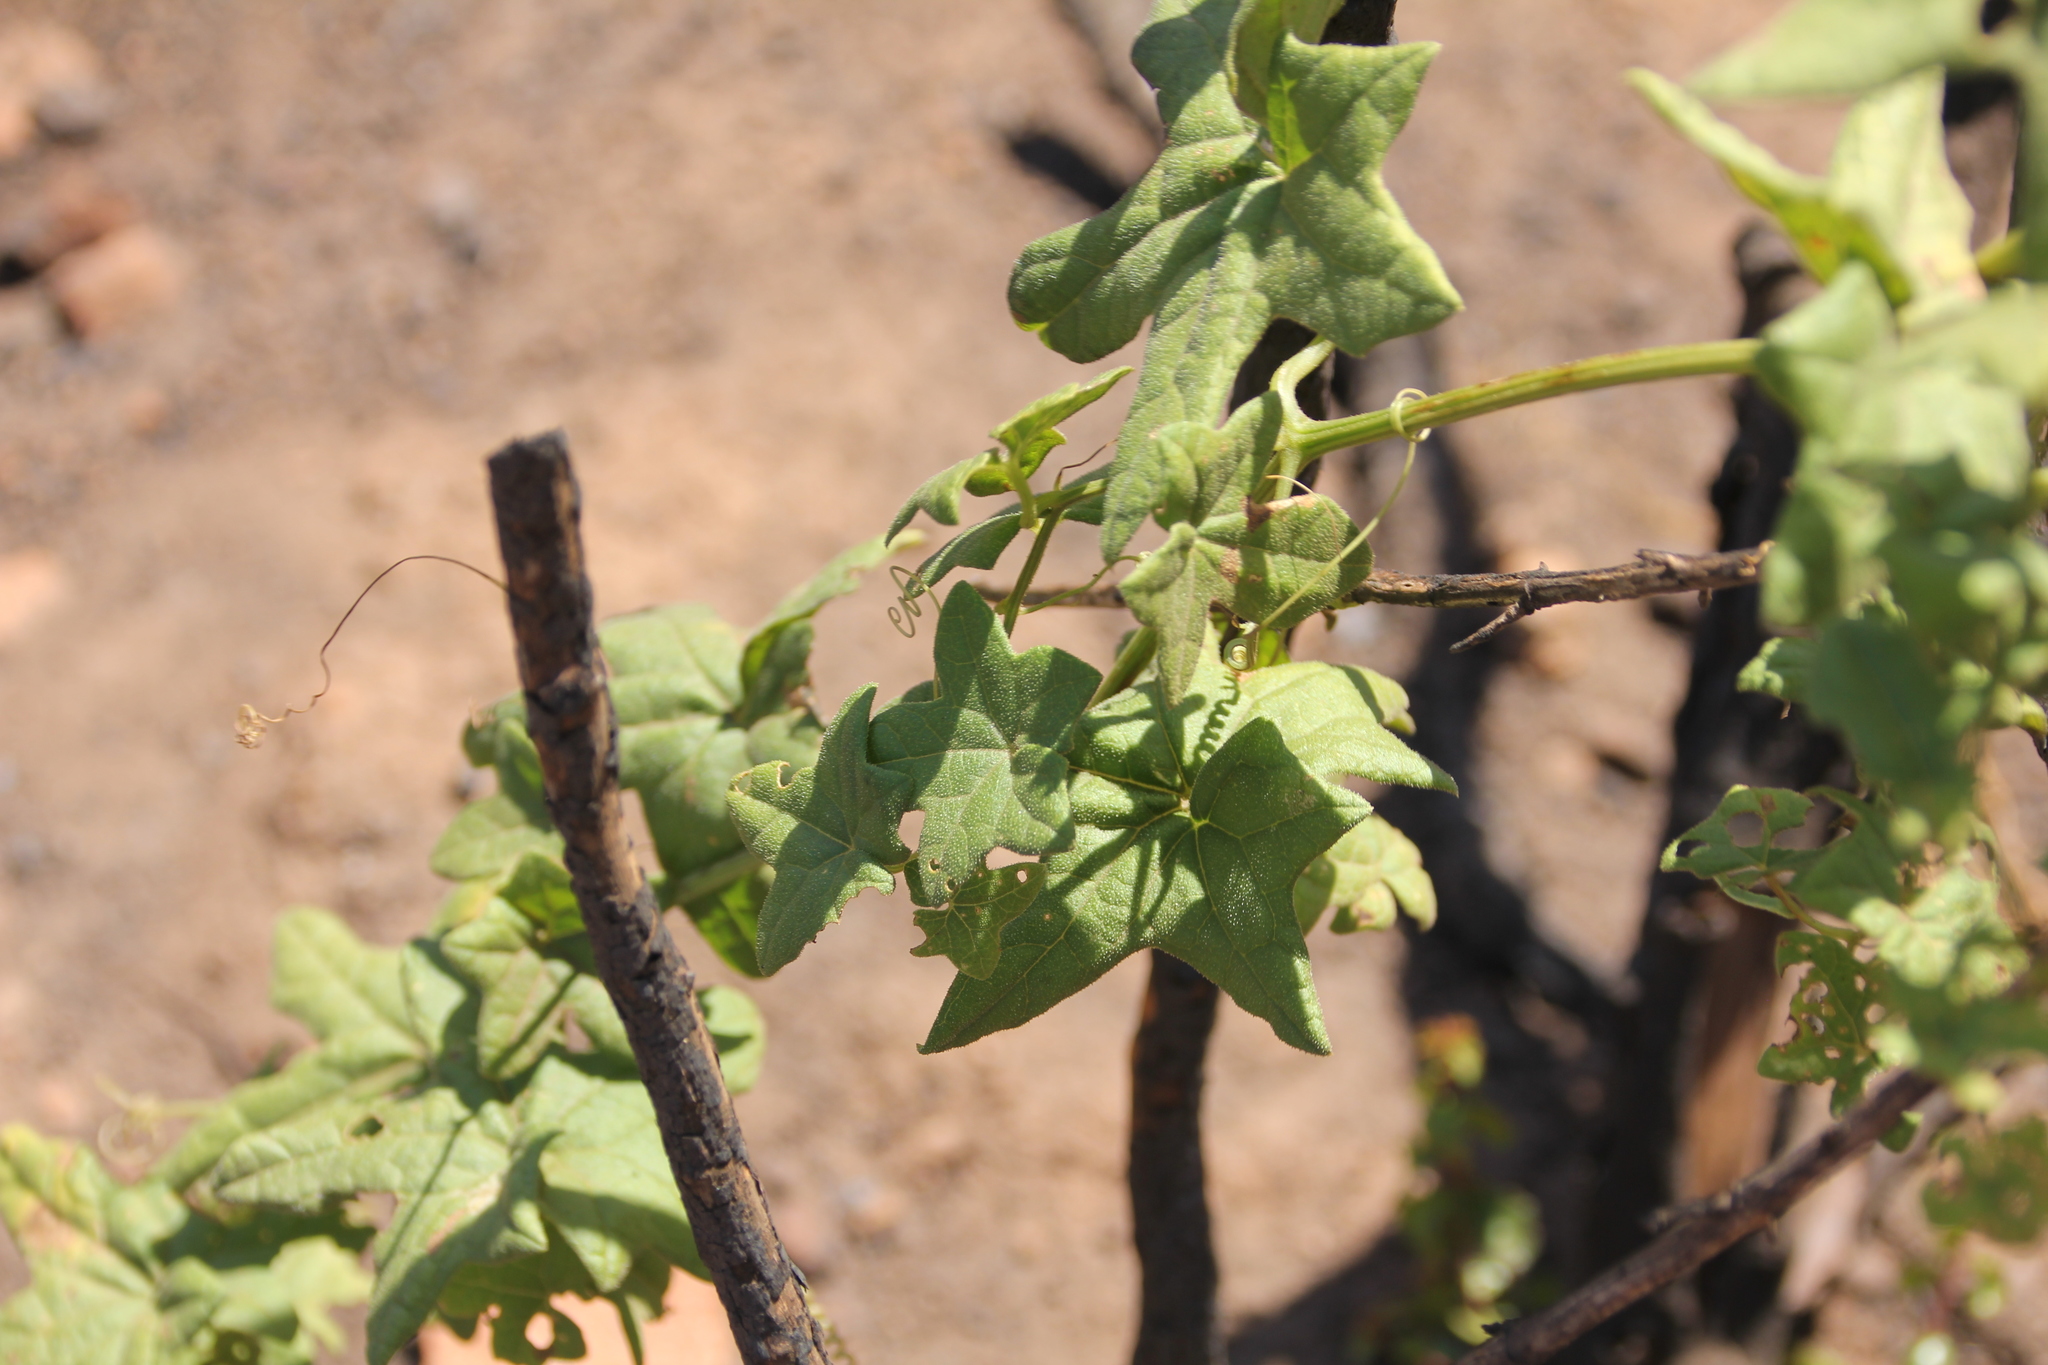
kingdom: Plantae
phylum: Tracheophyta
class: Magnoliopsida
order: Cucurbitales
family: Cucurbitaceae
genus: Marah
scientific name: Marah macrocarpa
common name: Cucamonga manroot
